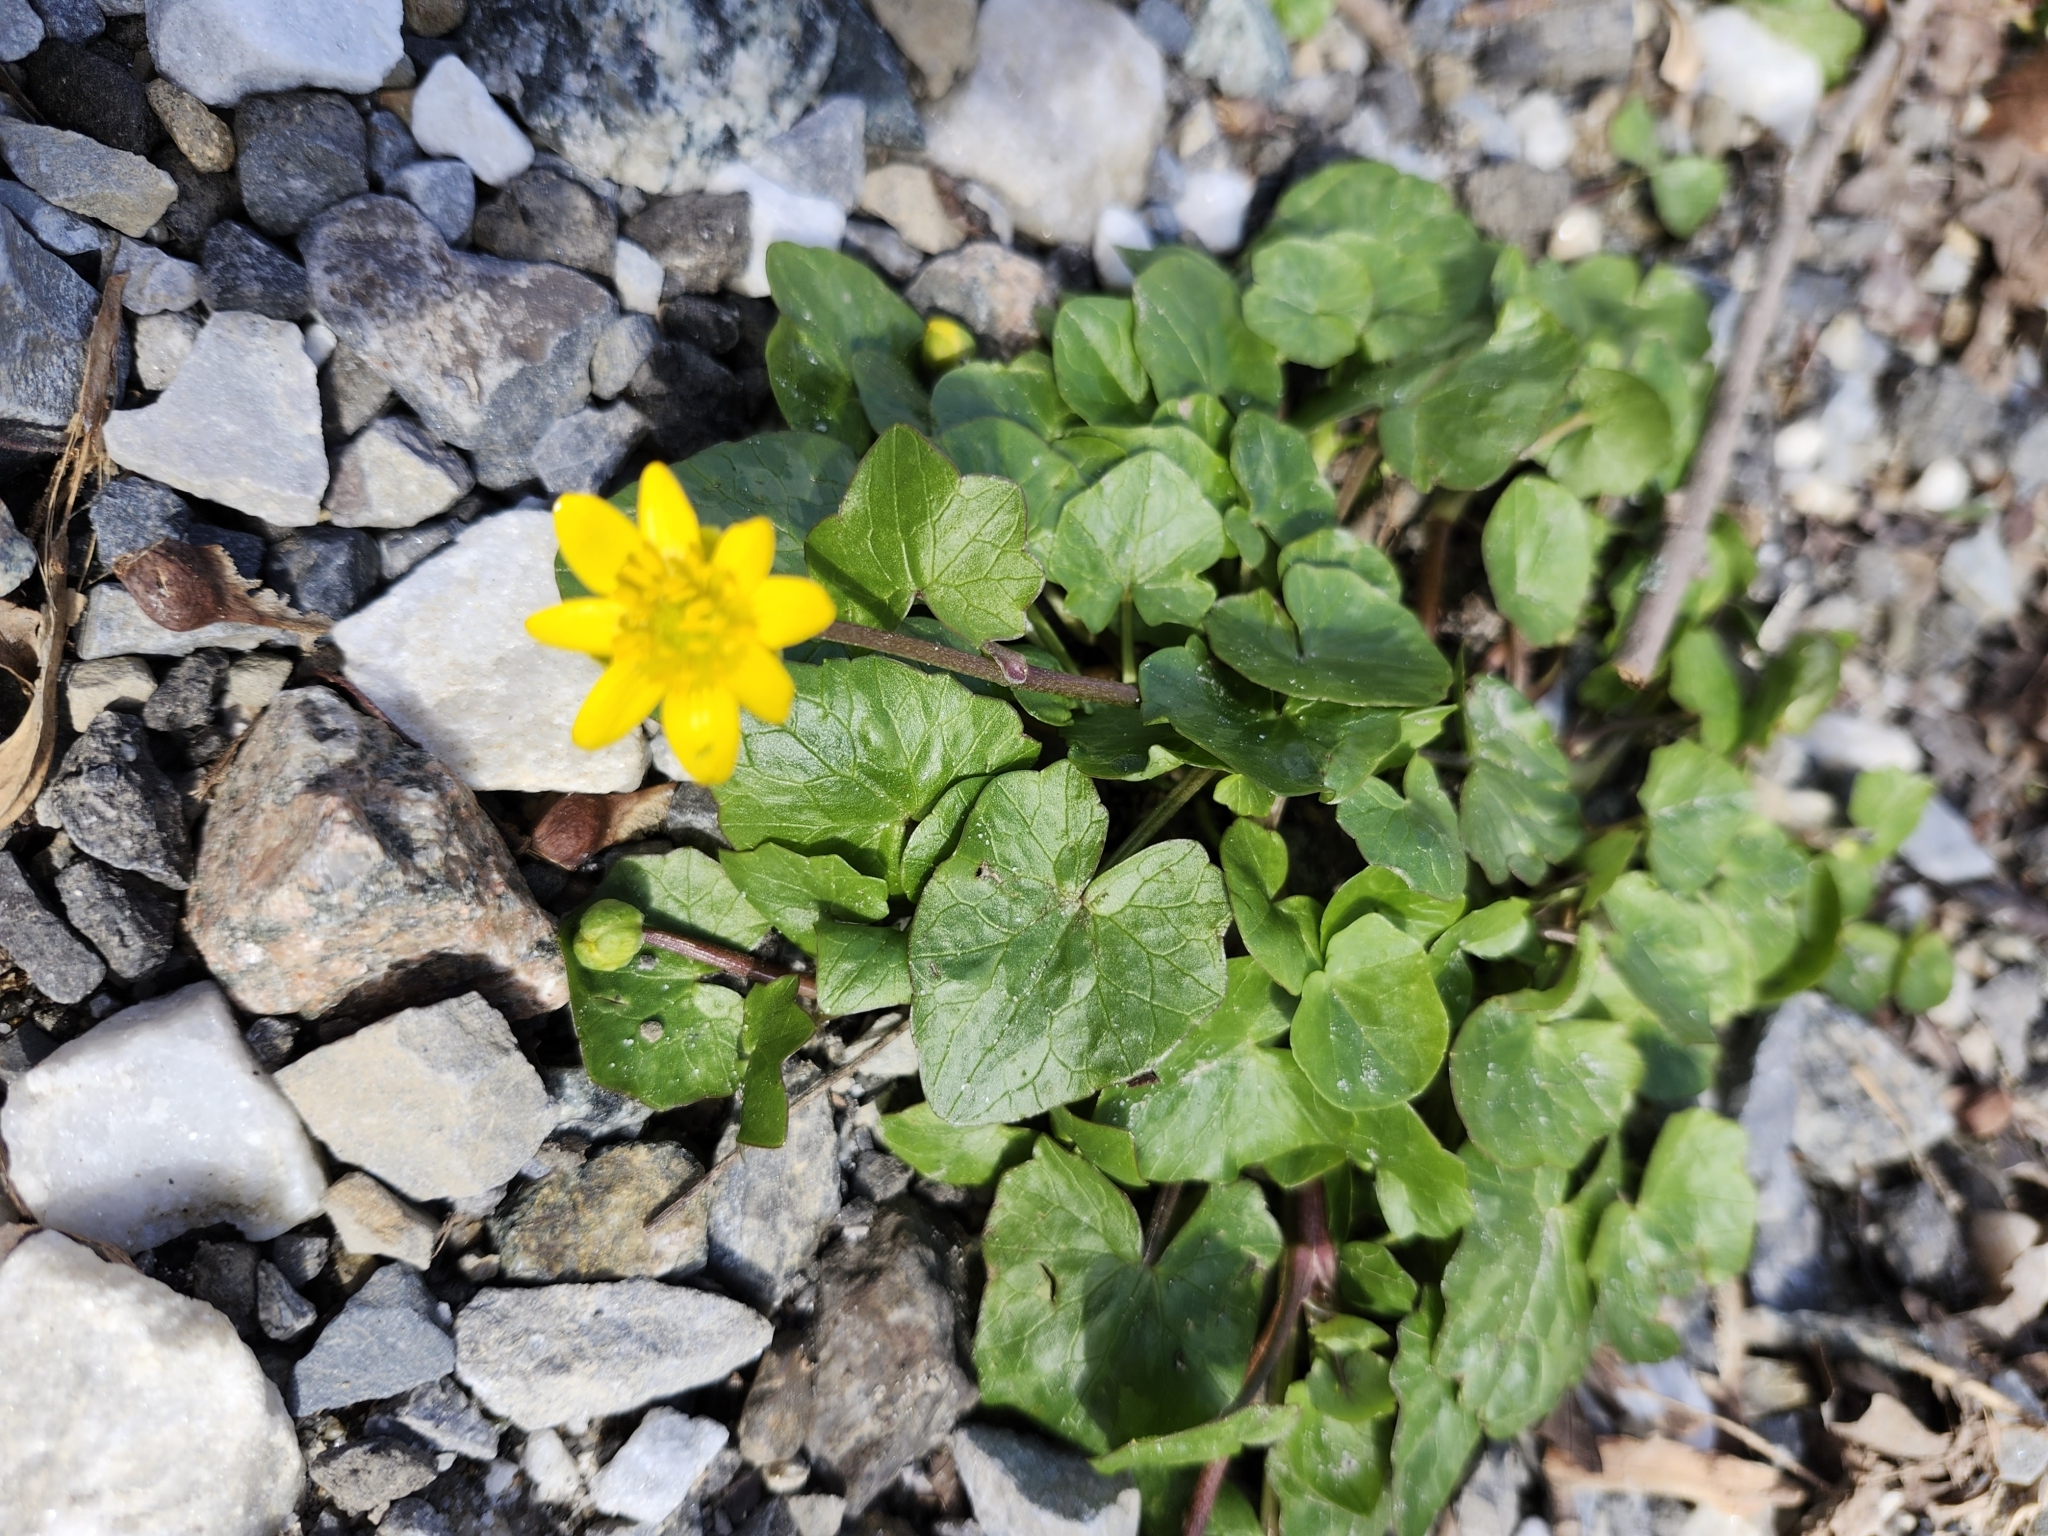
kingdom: Plantae
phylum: Tracheophyta
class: Magnoliopsida
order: Ranunculales
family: Ranunculaceae
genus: Ficaria
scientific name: Ficaria verna
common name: Lesser celandine
